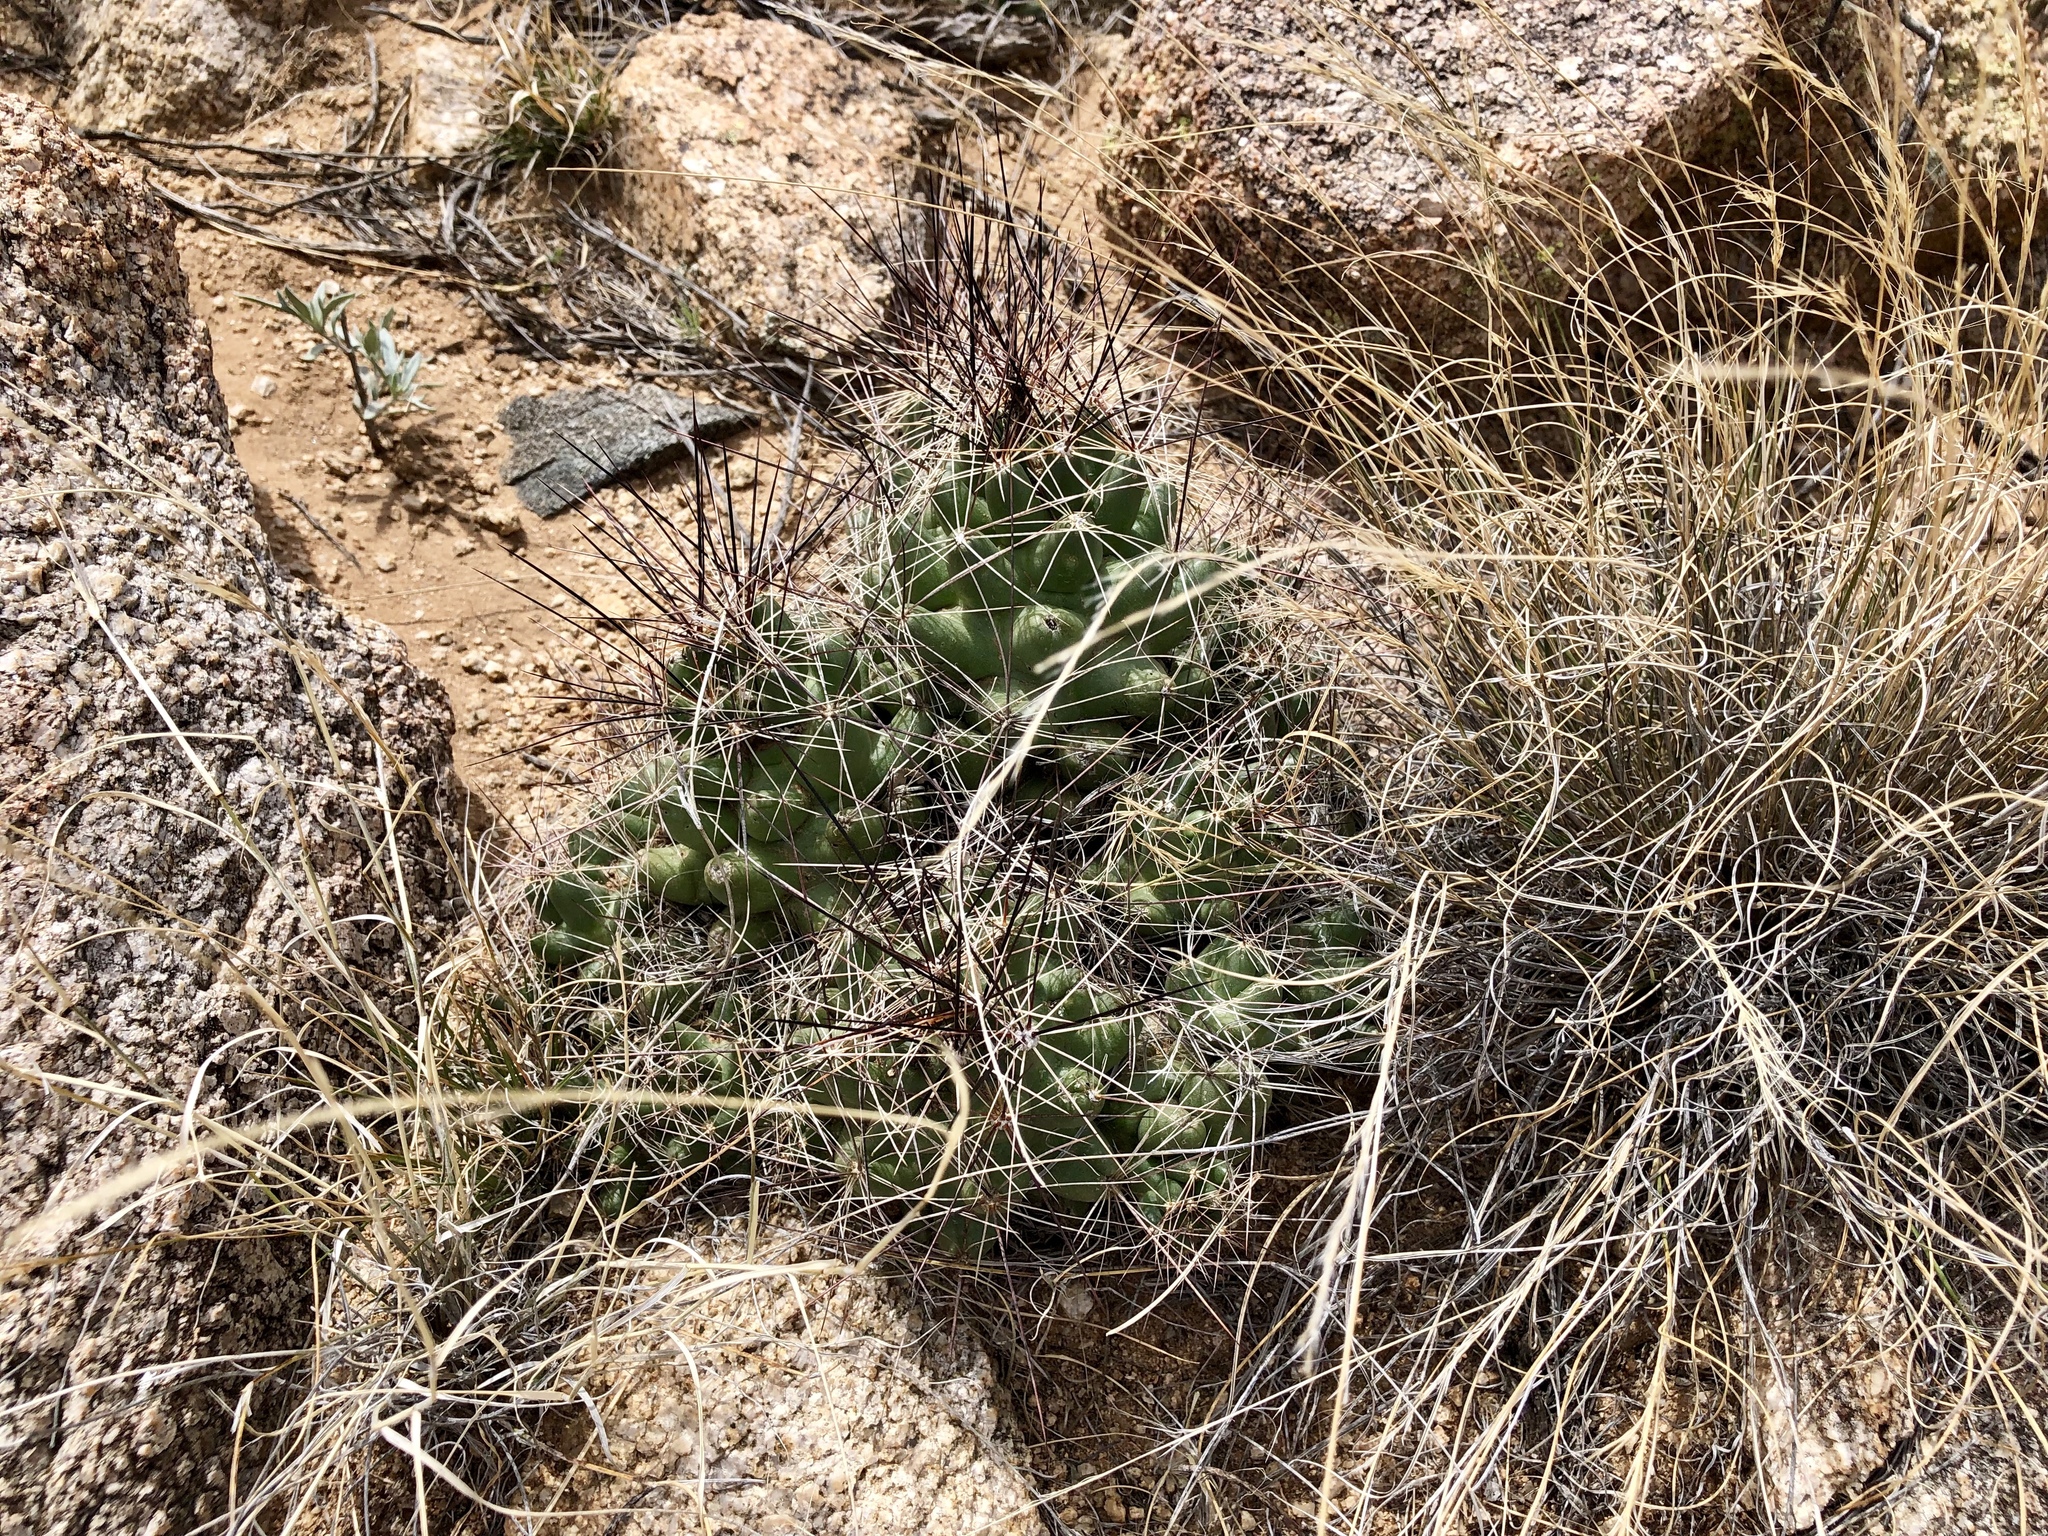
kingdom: Plantae
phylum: Tracheophyta
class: Magnoliopsida
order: Caryophyllales
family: Cactaceae
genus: Coryphantha
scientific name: Coryphantha macromeris
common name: Nipple beehive cactus
